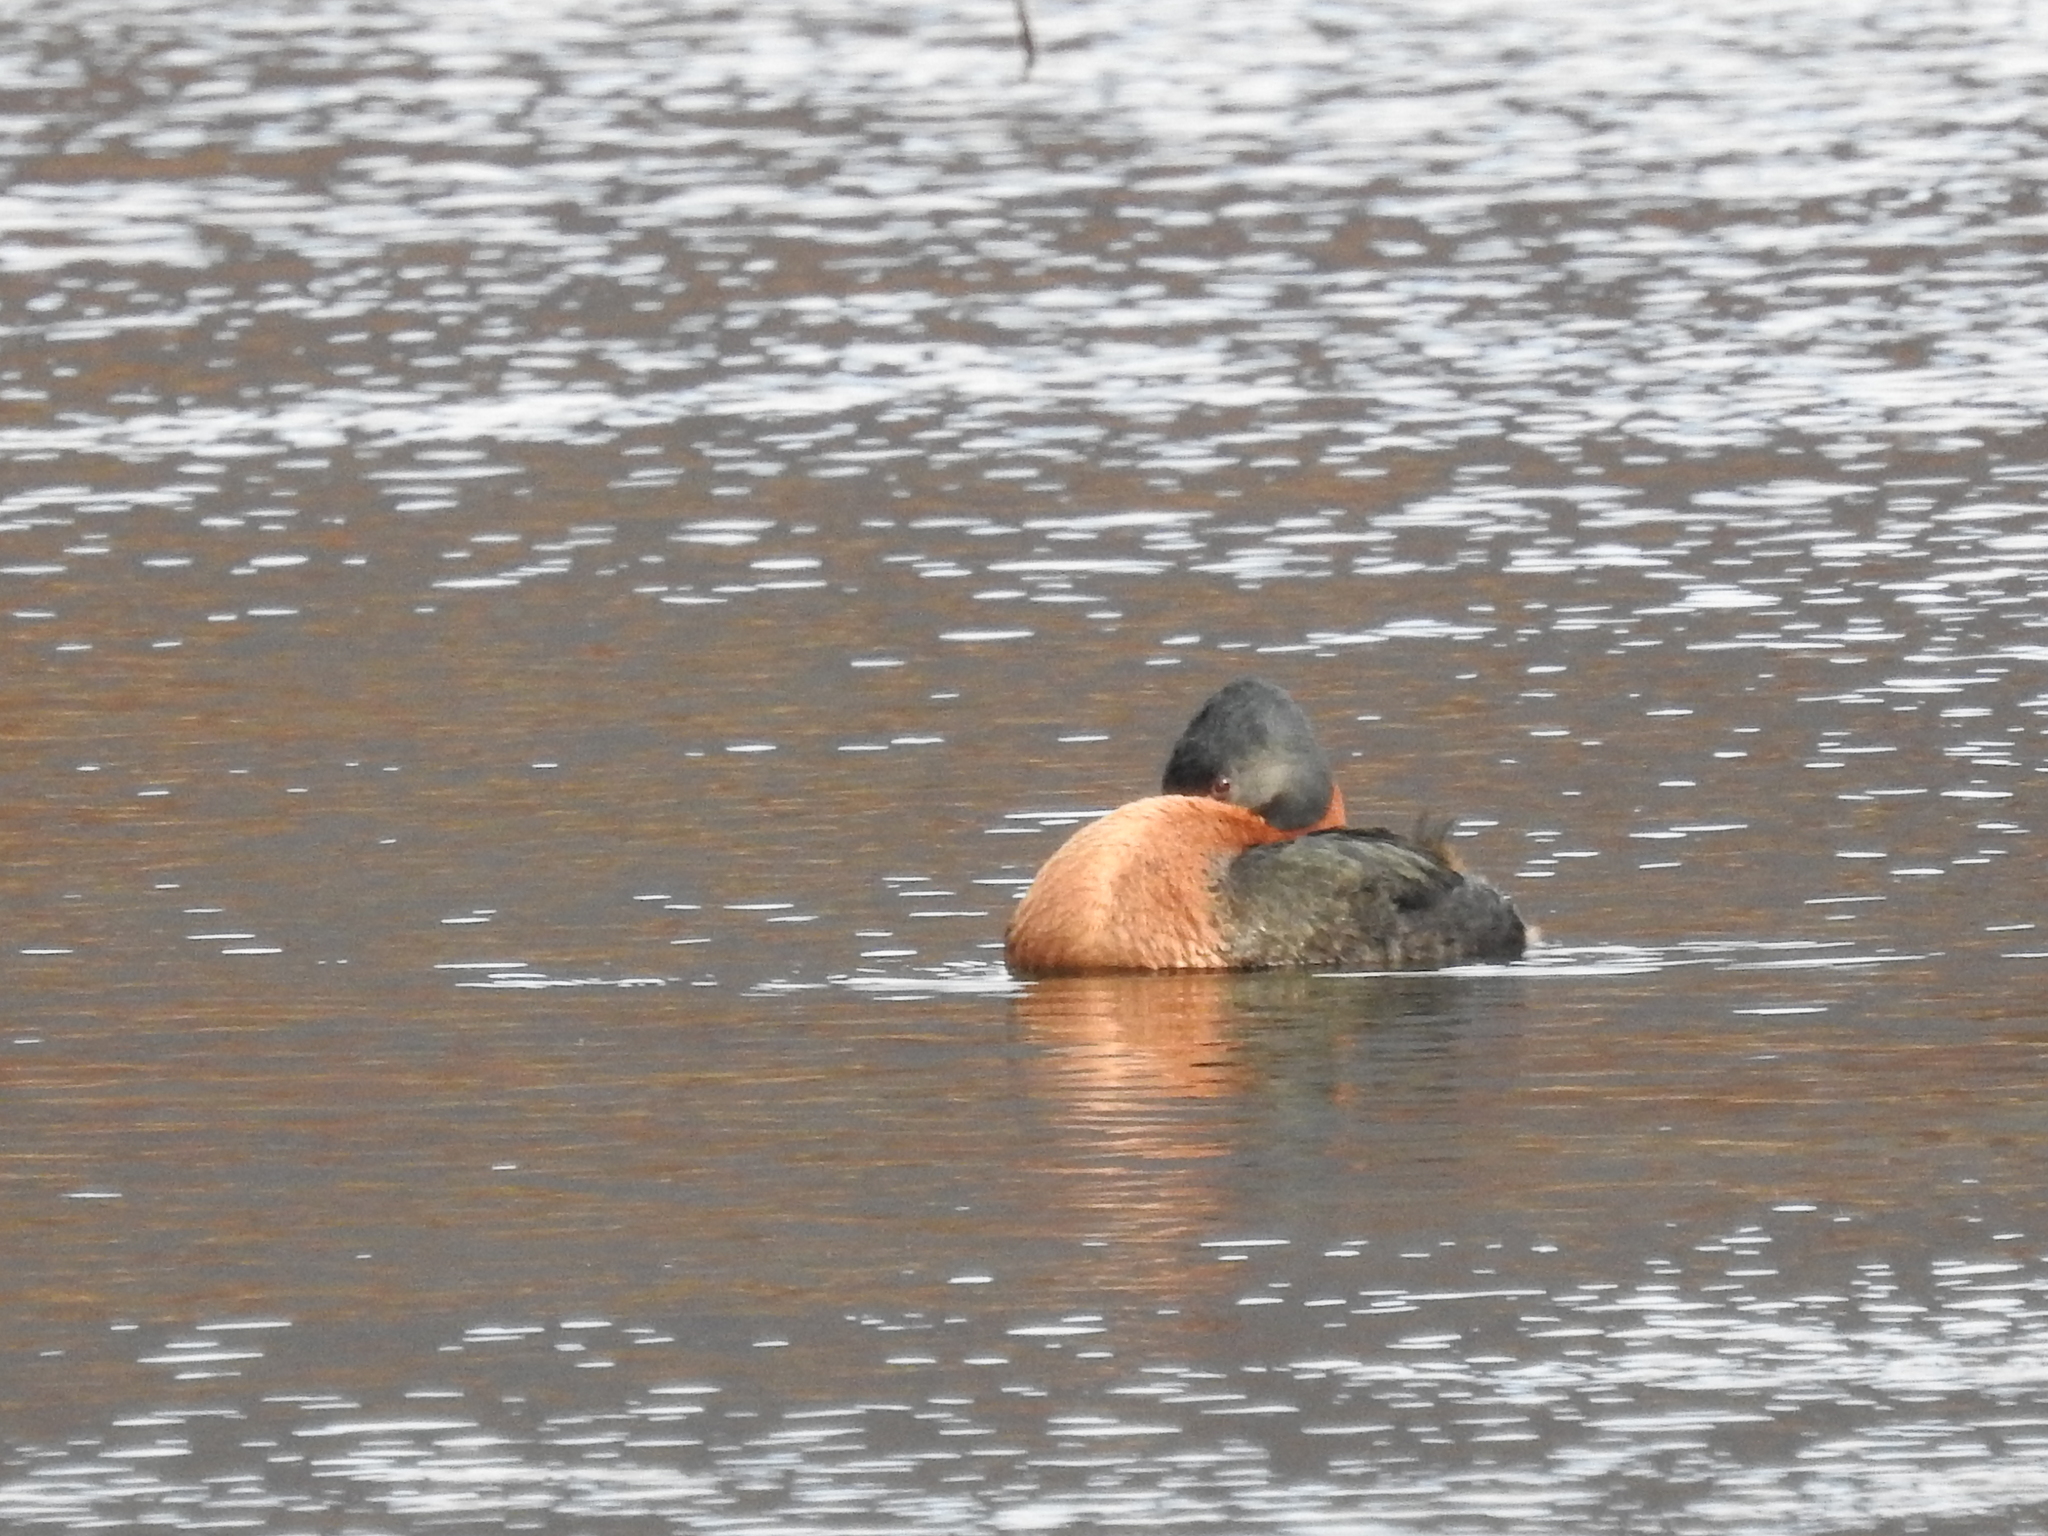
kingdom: Animalia
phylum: Chordata
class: Aves
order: Podicipediformes
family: Podicipedidae
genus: Podiceps
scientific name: Podiceps major
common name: Great grebe
